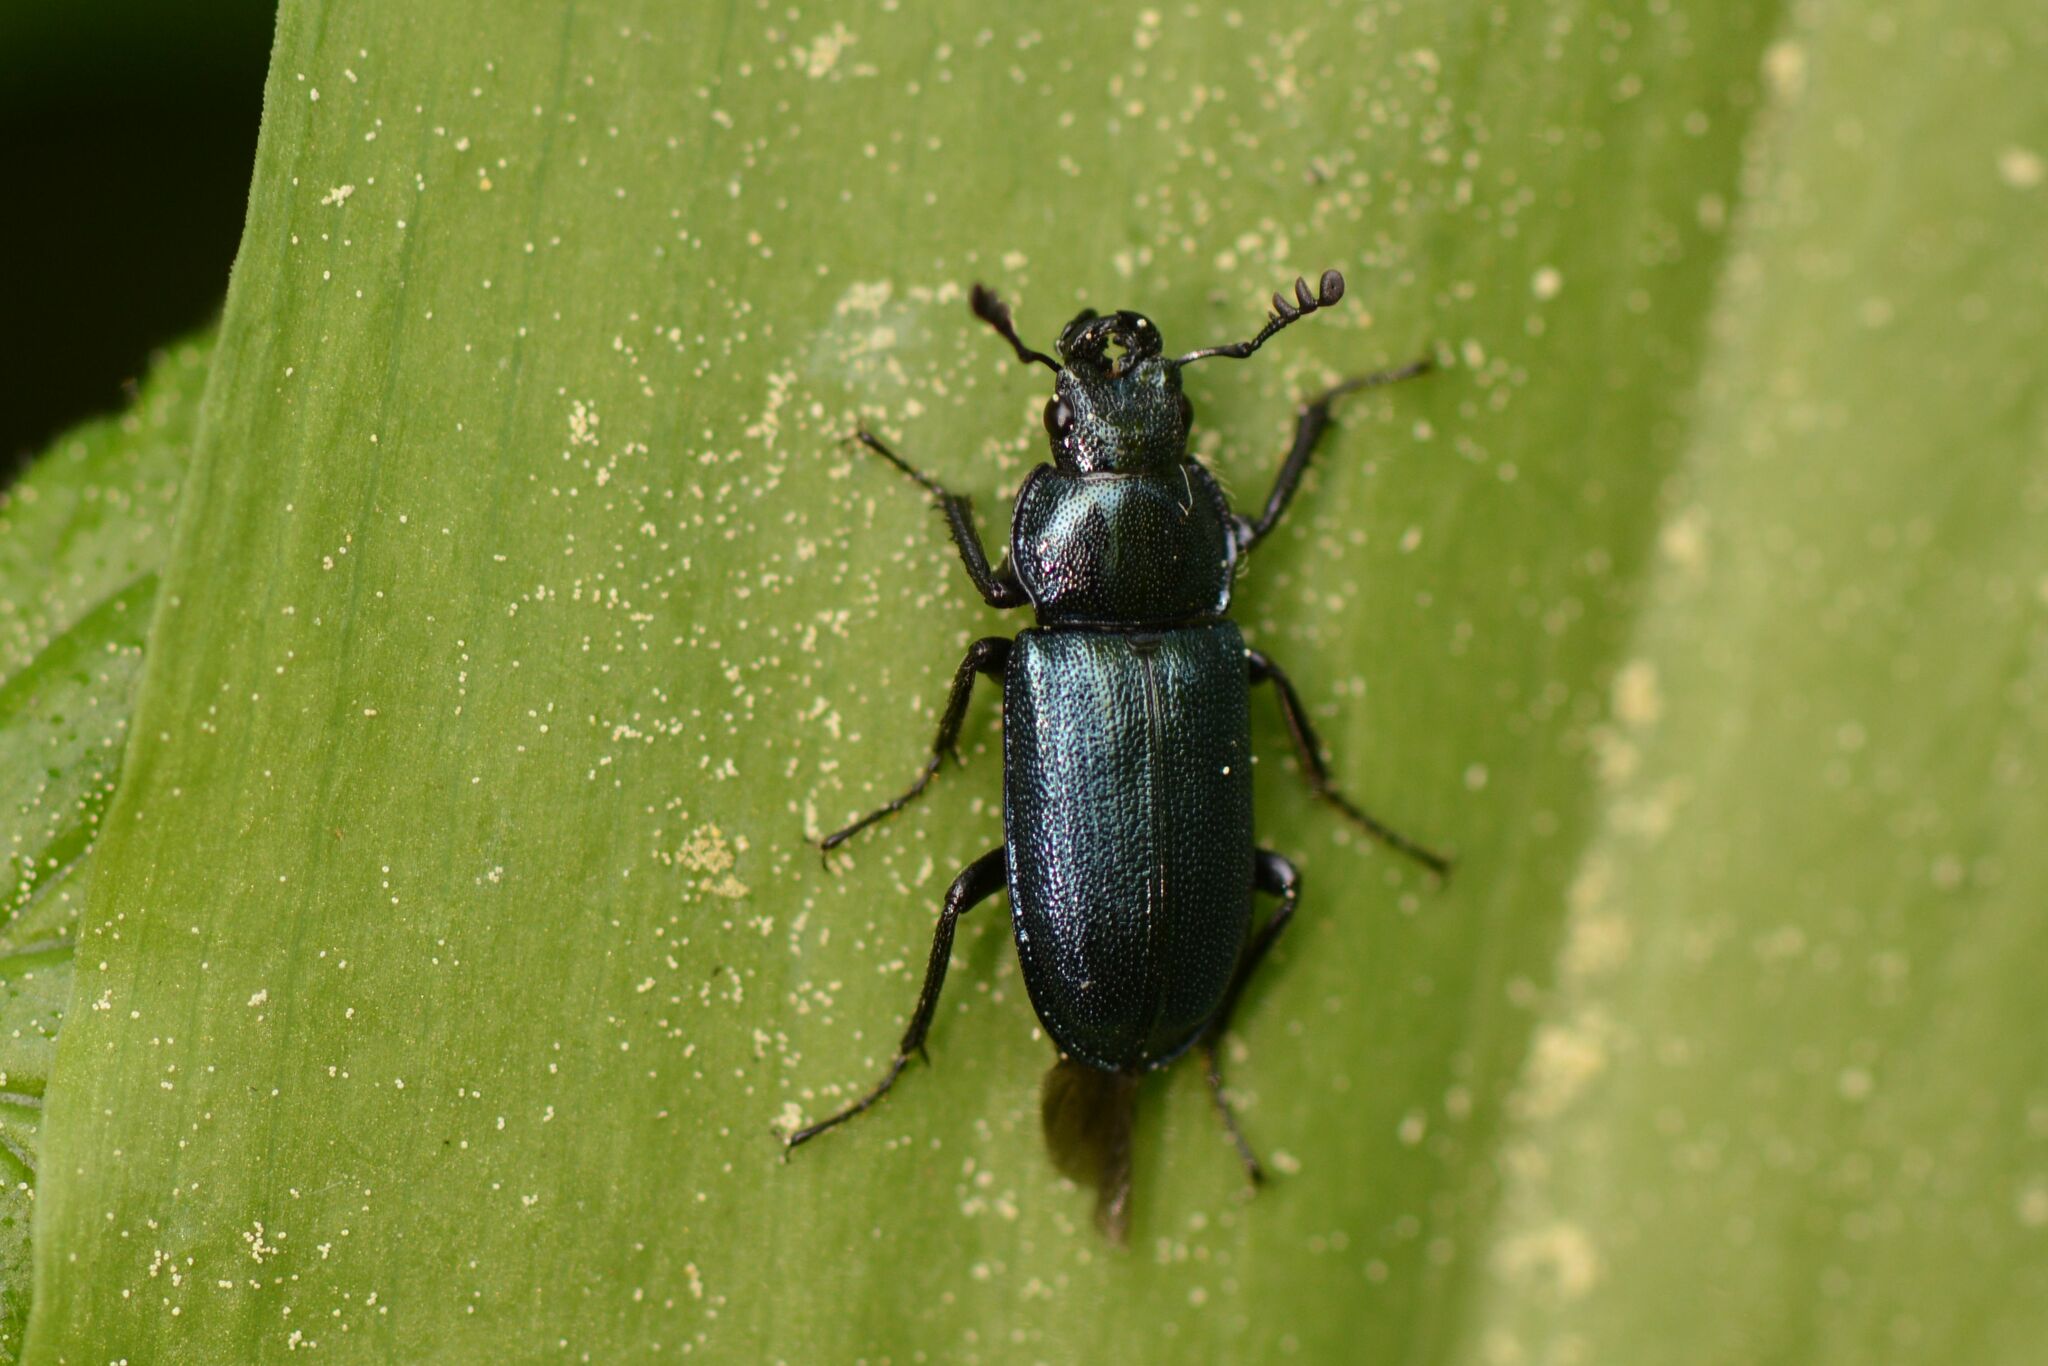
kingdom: Animalia
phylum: Arthropoda
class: Insecta
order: Coleoptera
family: Lucanidae
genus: Platycerus
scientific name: Platycerus caraboides
